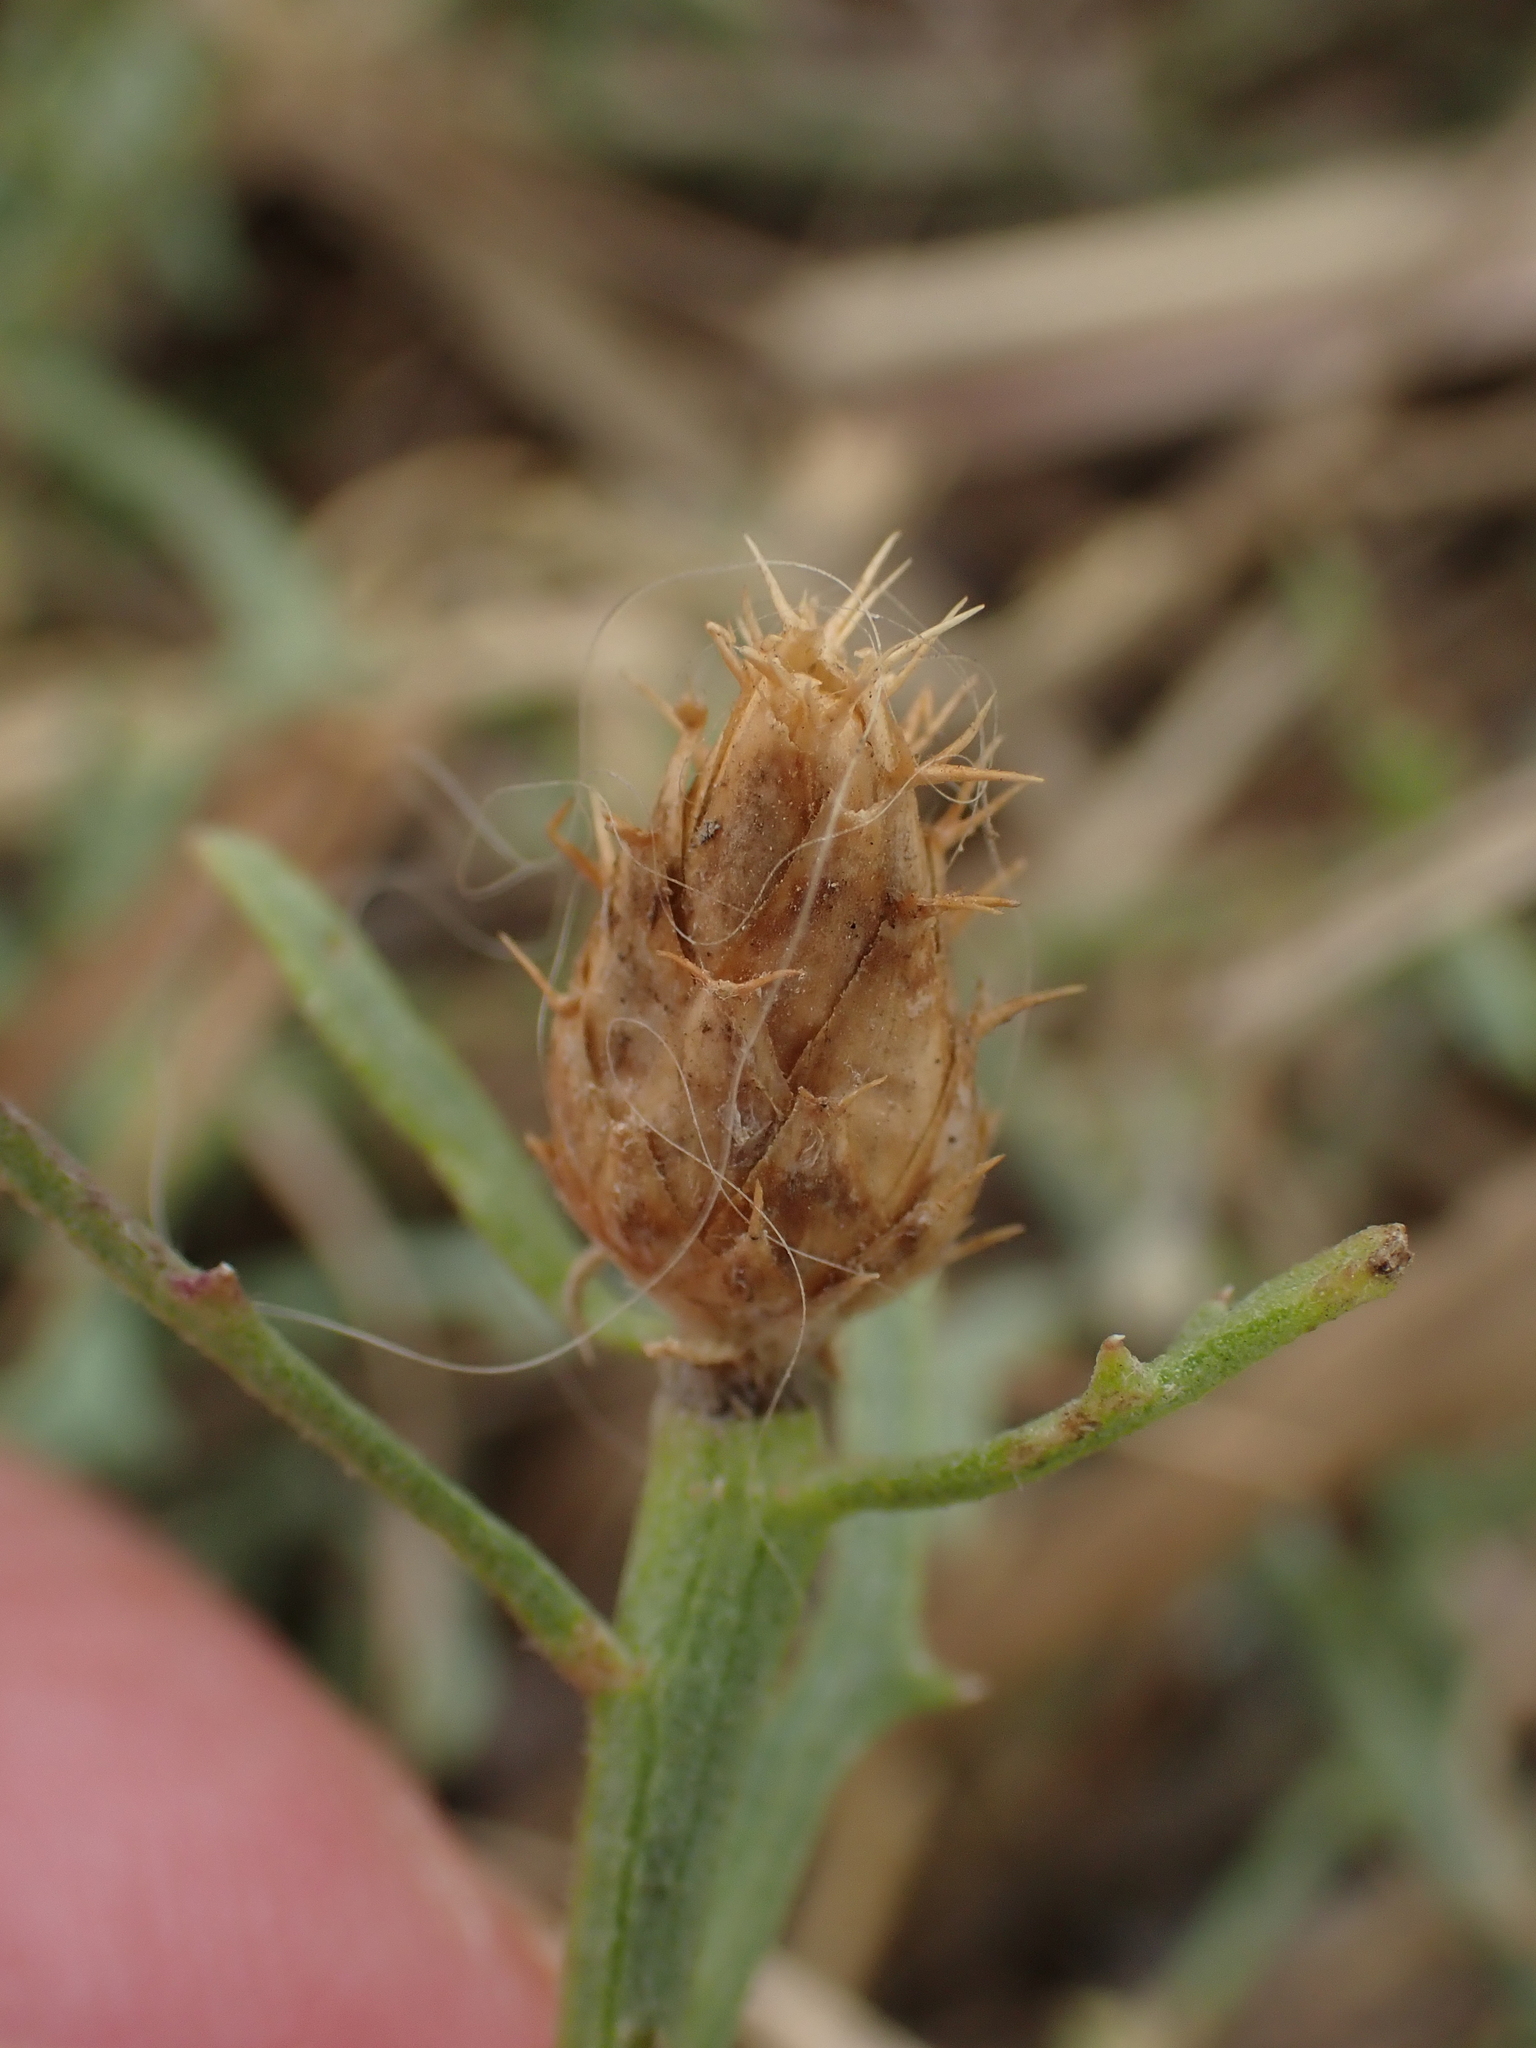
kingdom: Plantae
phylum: Tracheophyta
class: Magnoliopsida
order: Asterales
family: Asteraceae
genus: Centaurea
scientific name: Centaurea aspera
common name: Rough star-thistle
